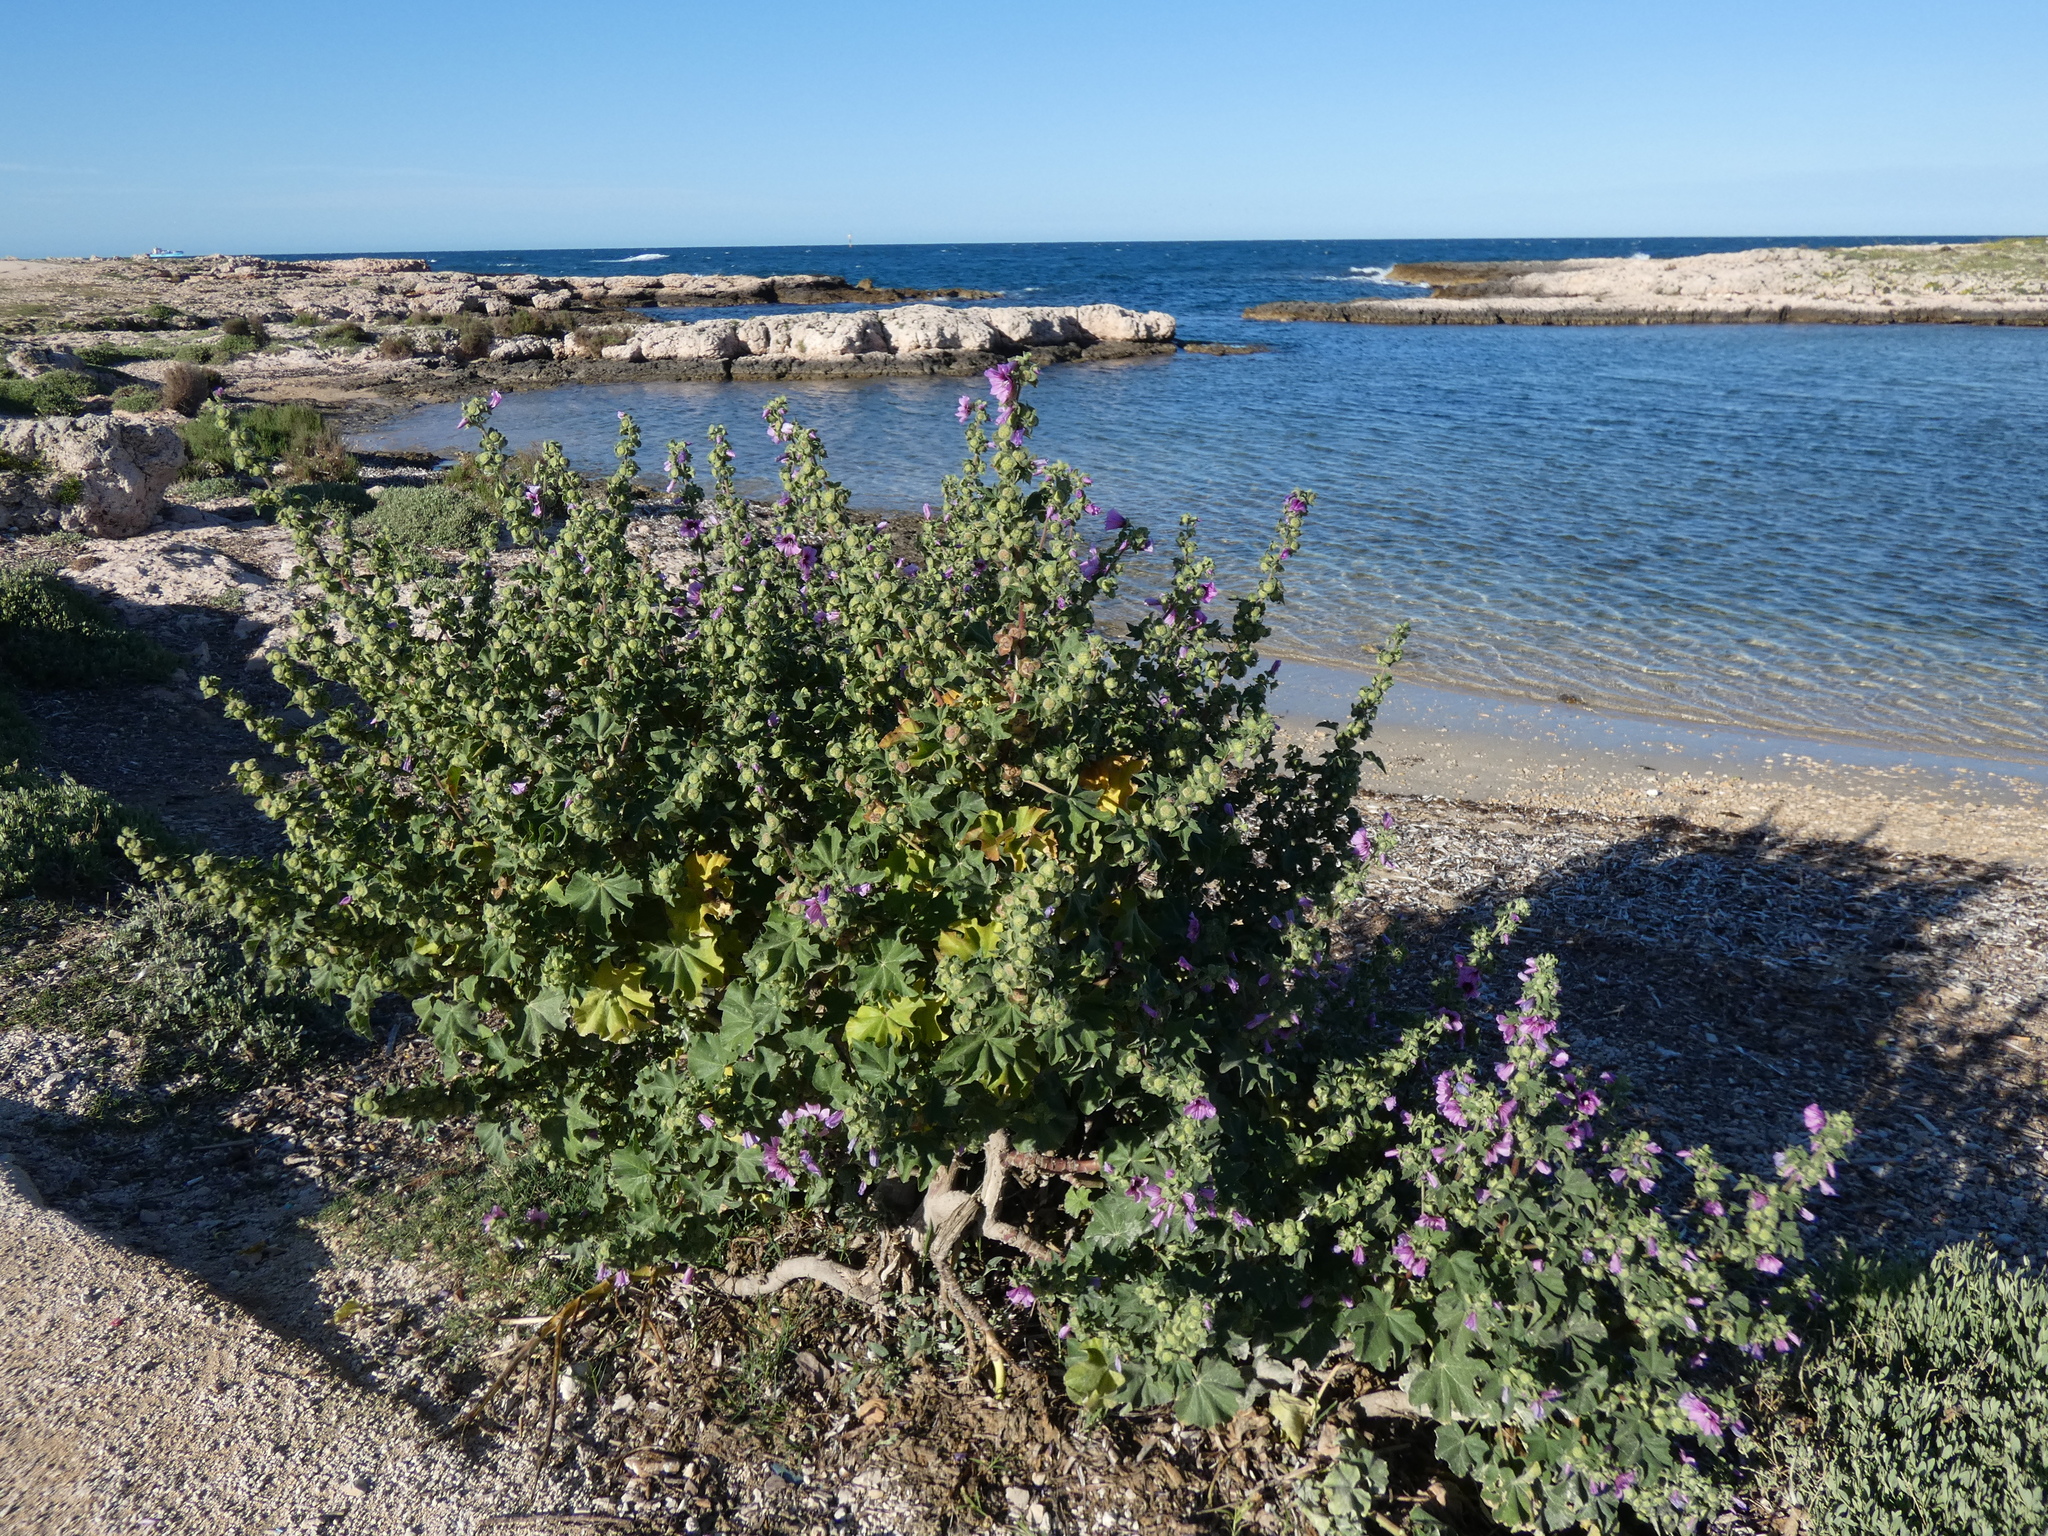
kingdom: Plantae
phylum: Tracheophyta
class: Magnoliopsida
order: Malvales
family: Malvaceae
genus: Malva
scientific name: Malva arborea
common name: Tree mallow
